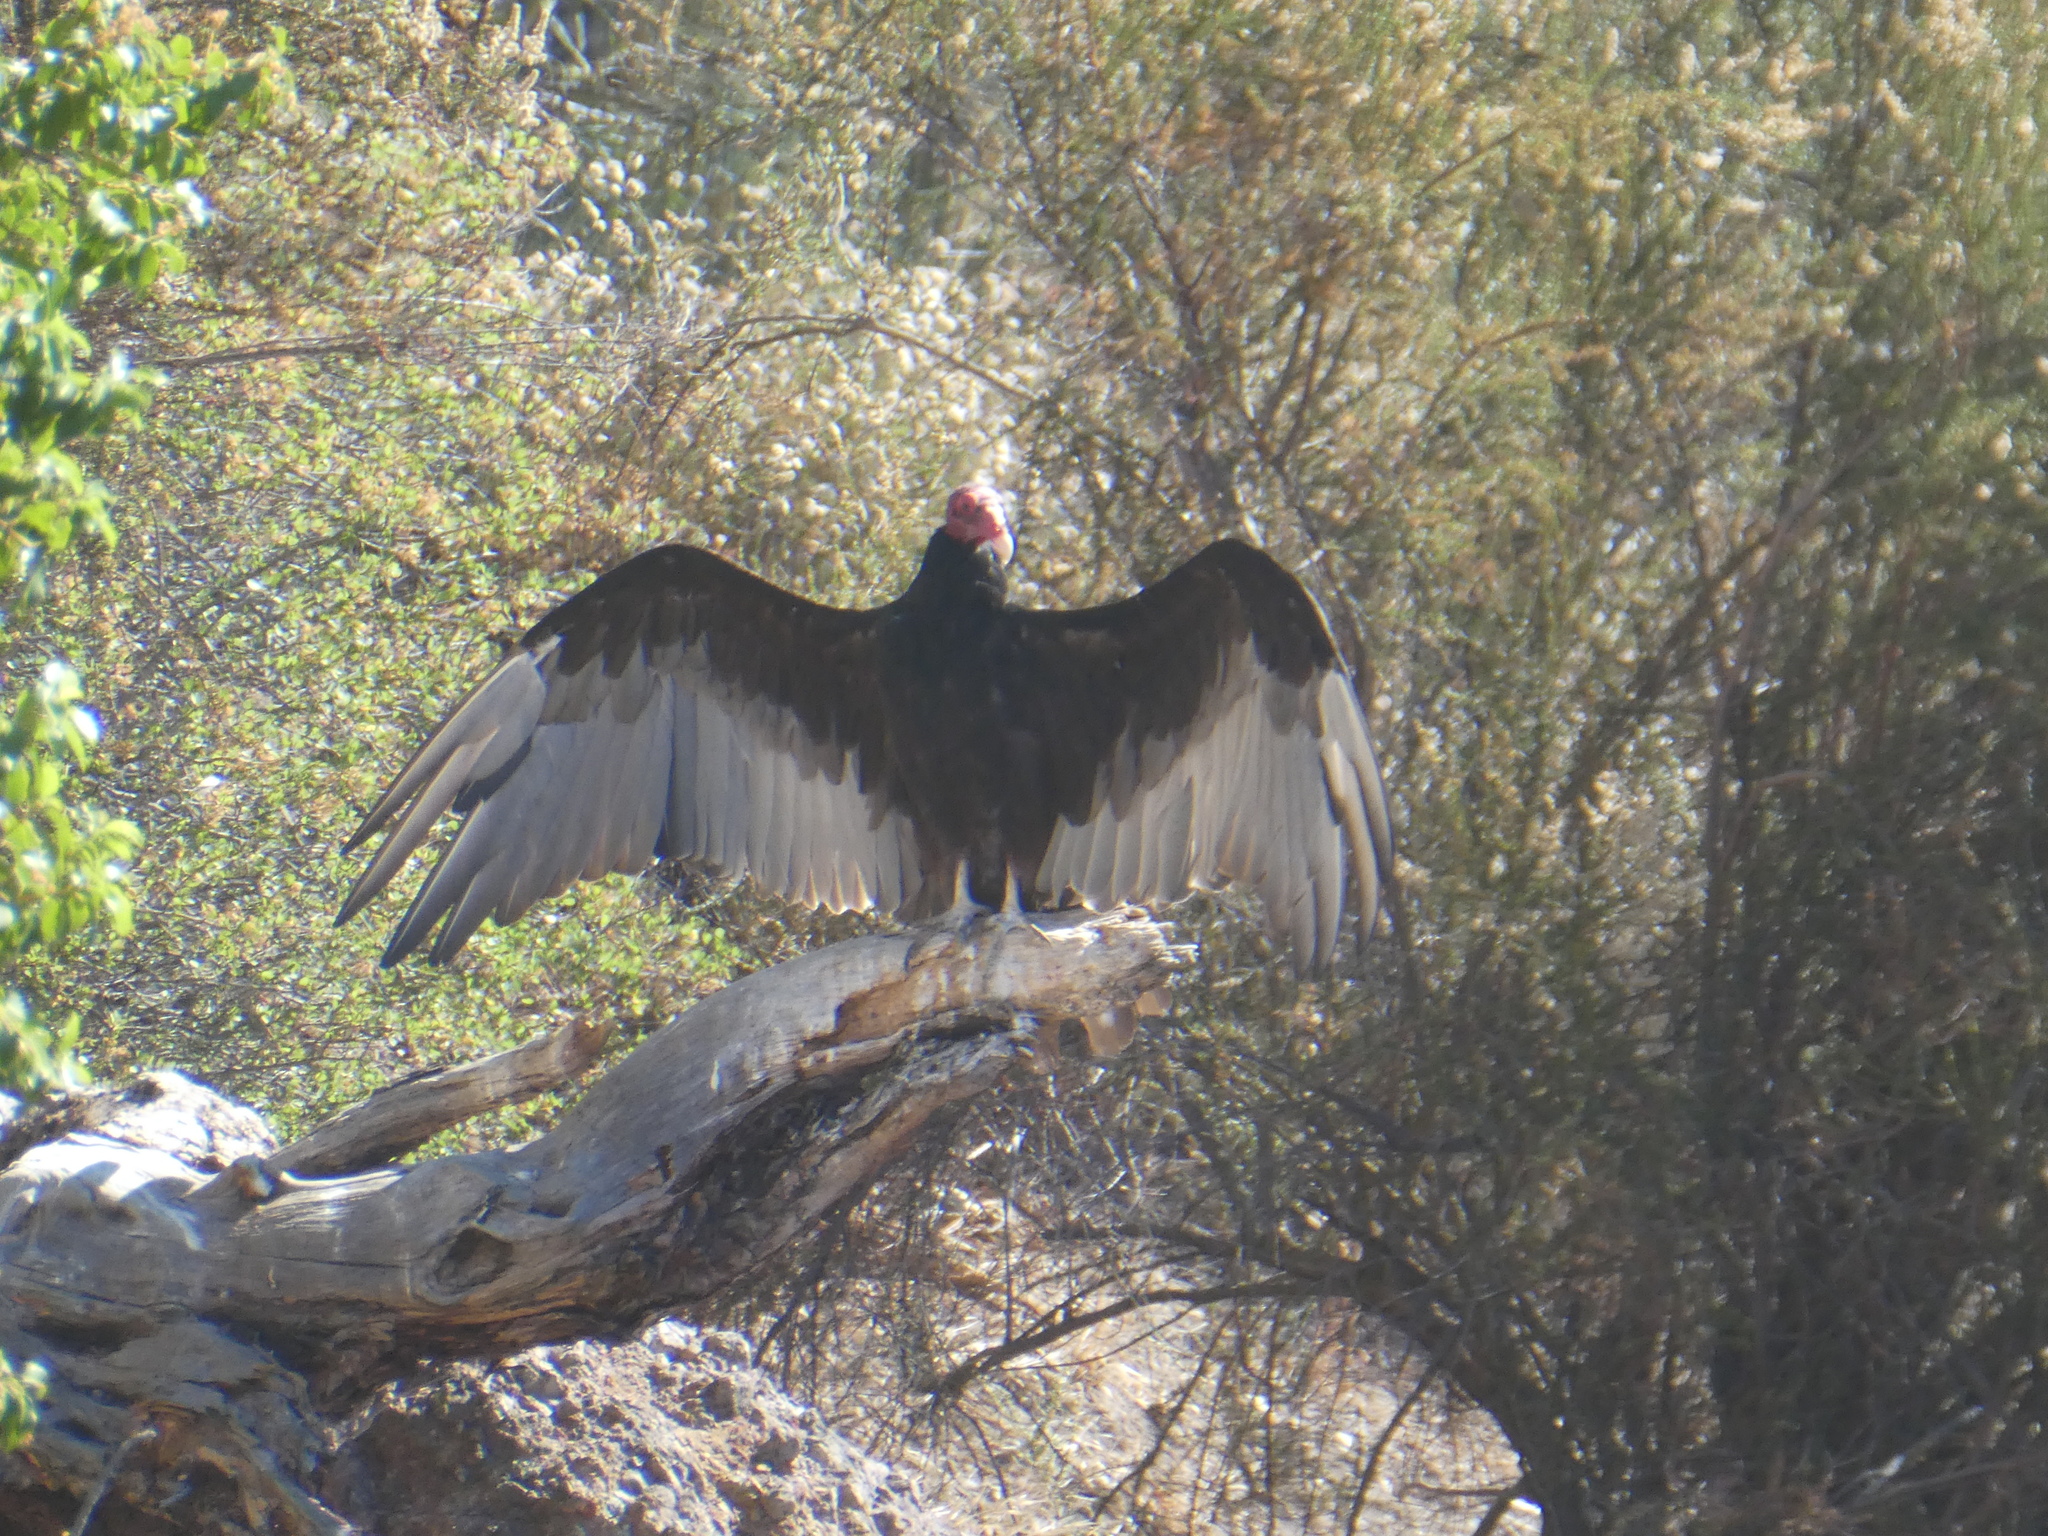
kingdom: Animalia
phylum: Chordata
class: Aves
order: Accipitriformes
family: Cathartidae
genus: Cathartes
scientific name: Cathartes aura
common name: Turkey vulture
